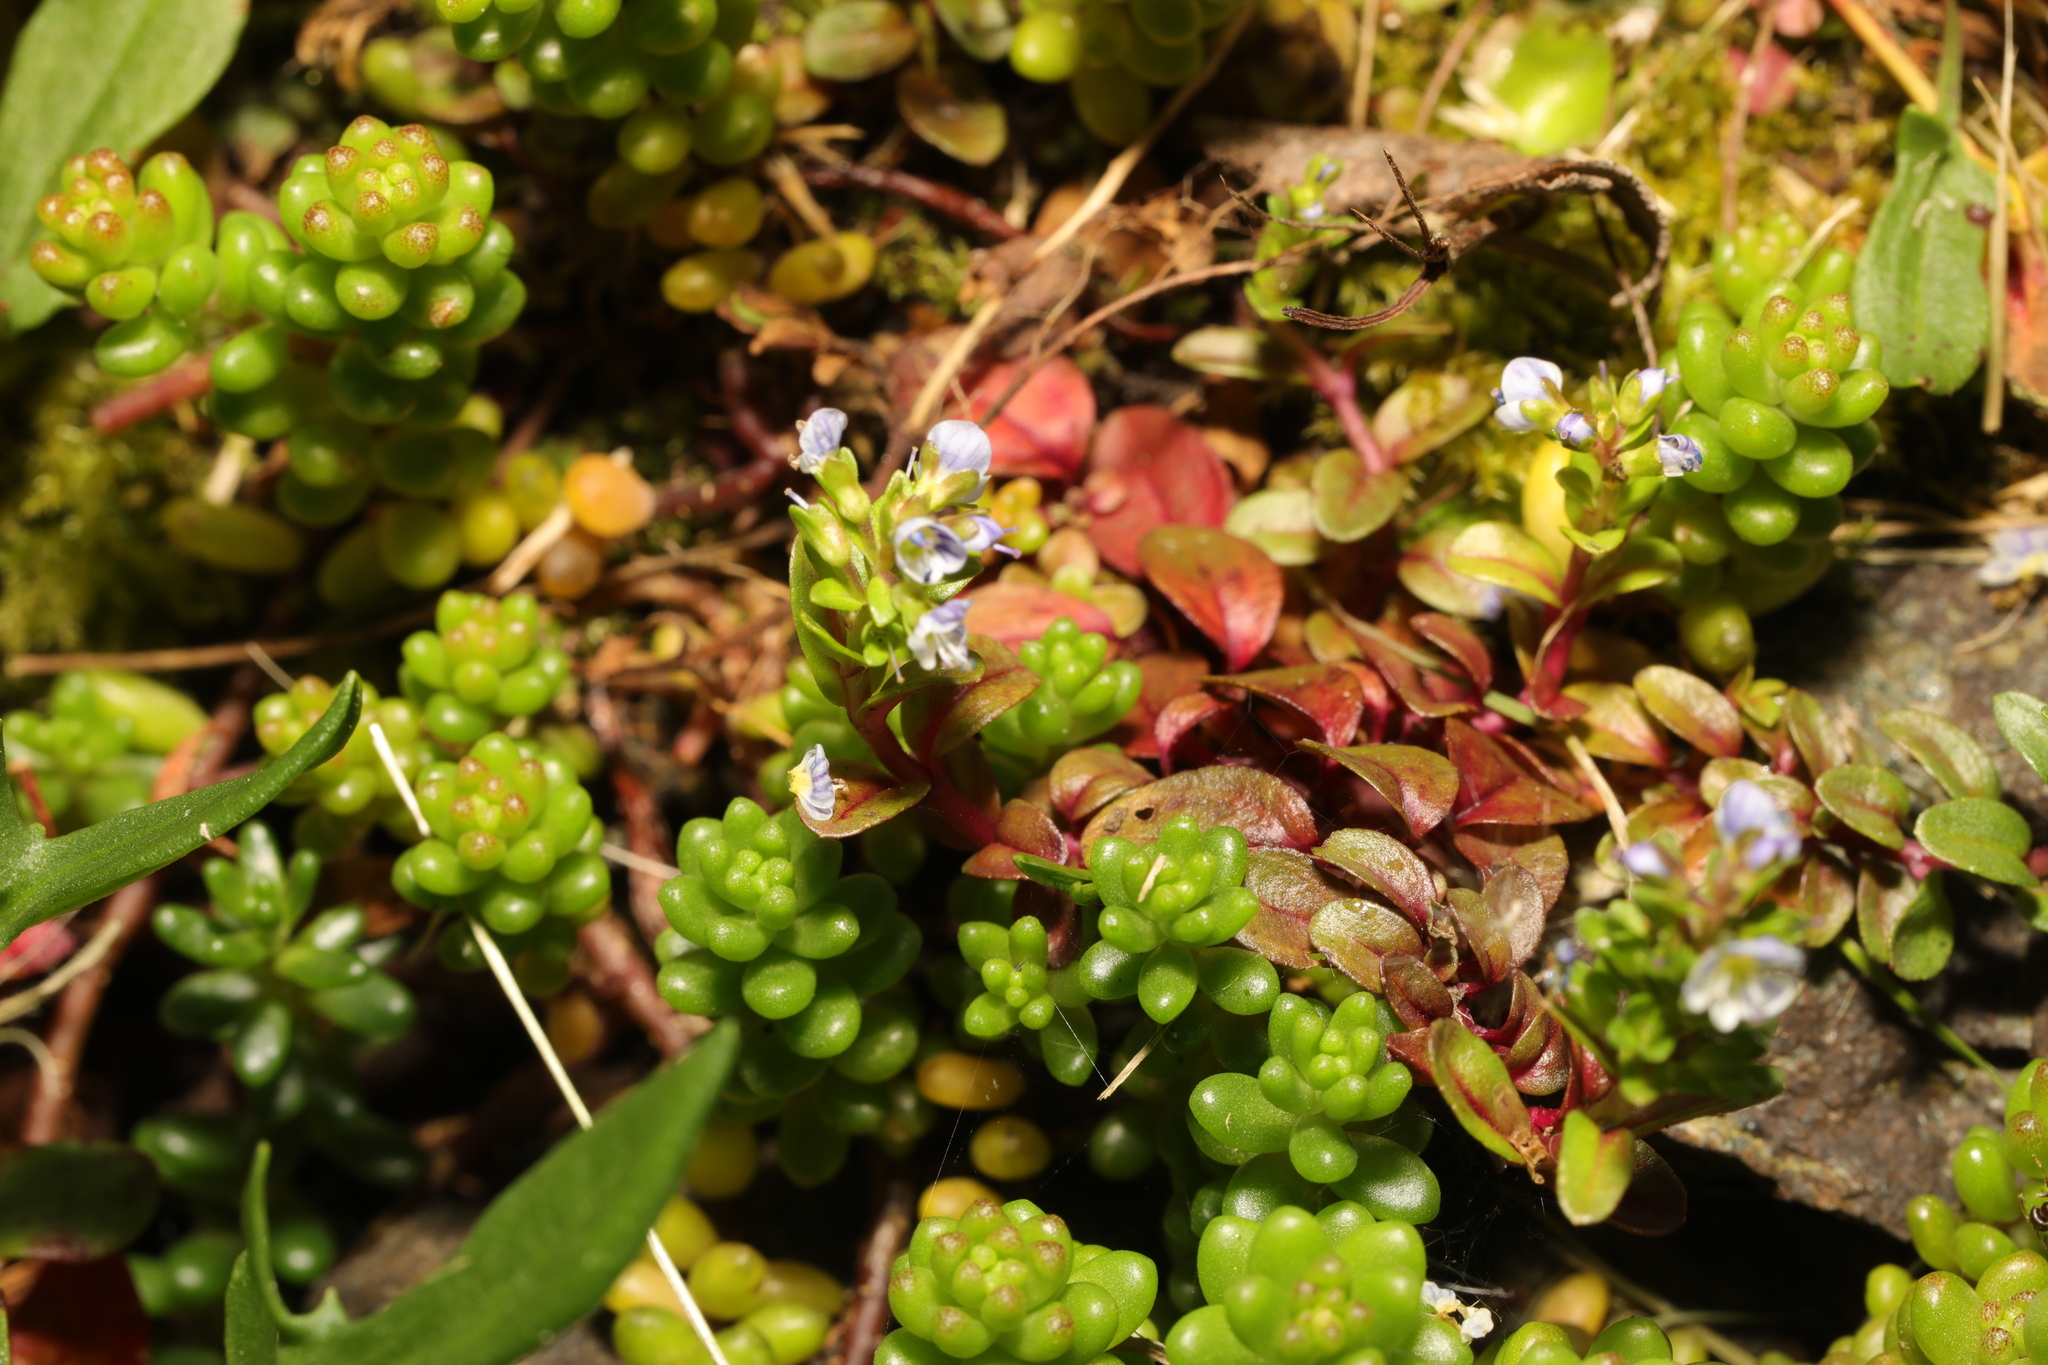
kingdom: Plantae
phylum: Tracheophyta
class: Magnoliopsida
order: Lamiales
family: Plantaginaceae
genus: Veronica
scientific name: Veronica serpyllifolia
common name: Thyme-leaved speedwell
